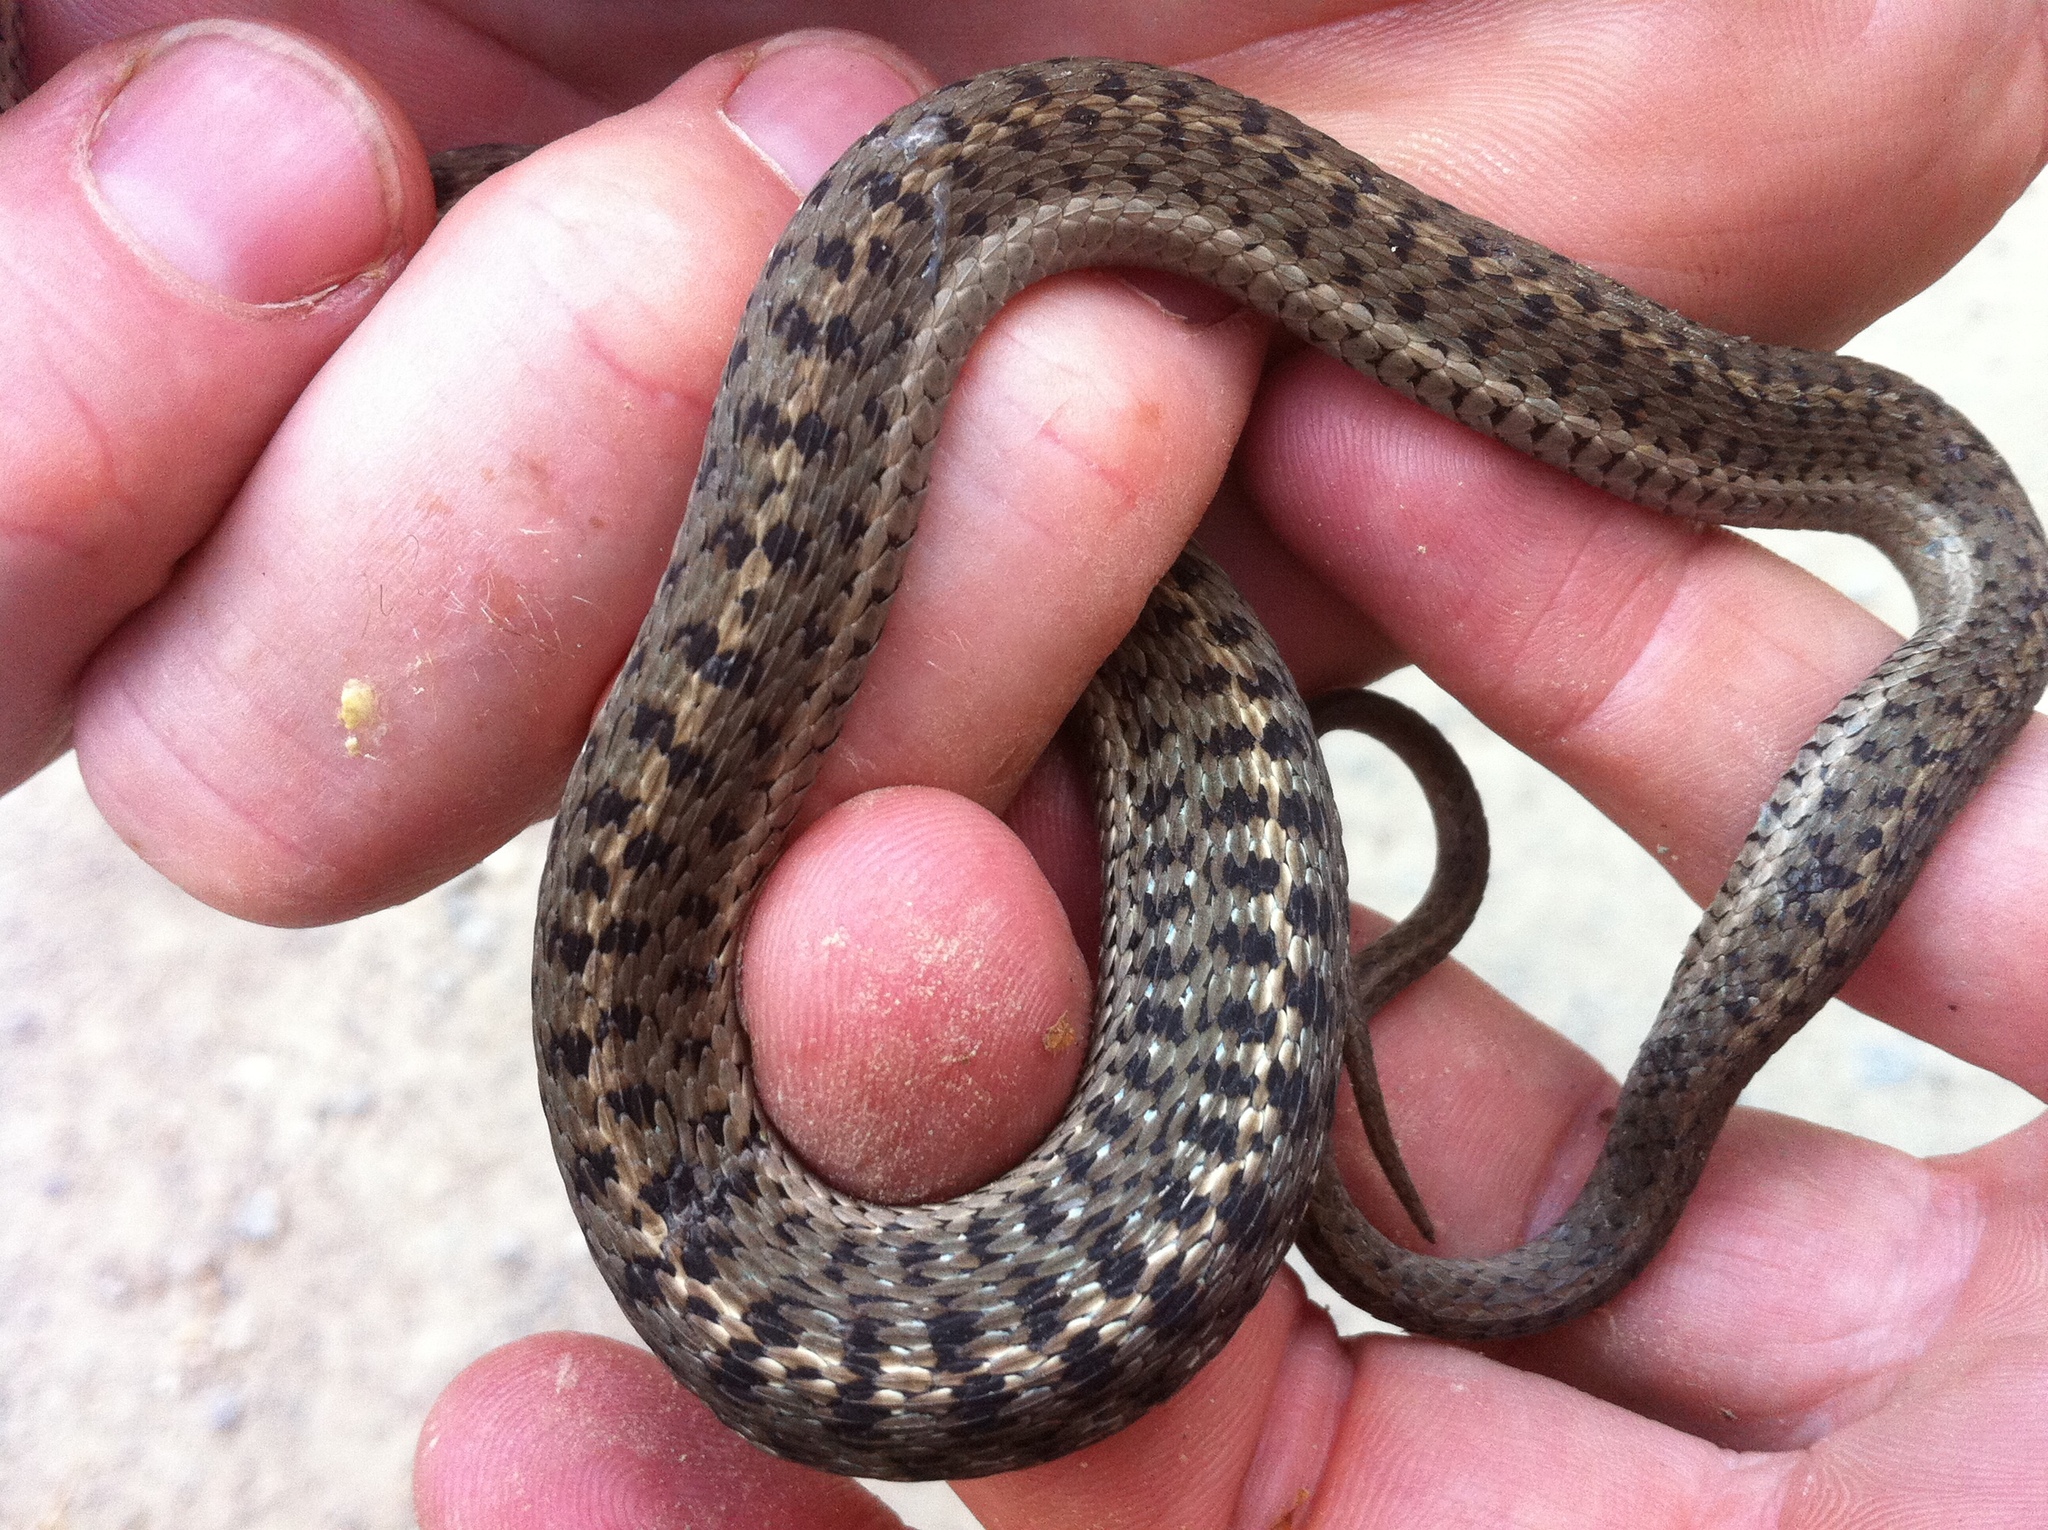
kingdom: Animalia
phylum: Chordata
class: Squamata
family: Colubridae
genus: Thamnophis
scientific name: Thamnophis elegans
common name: Western terrestrial garter snake
